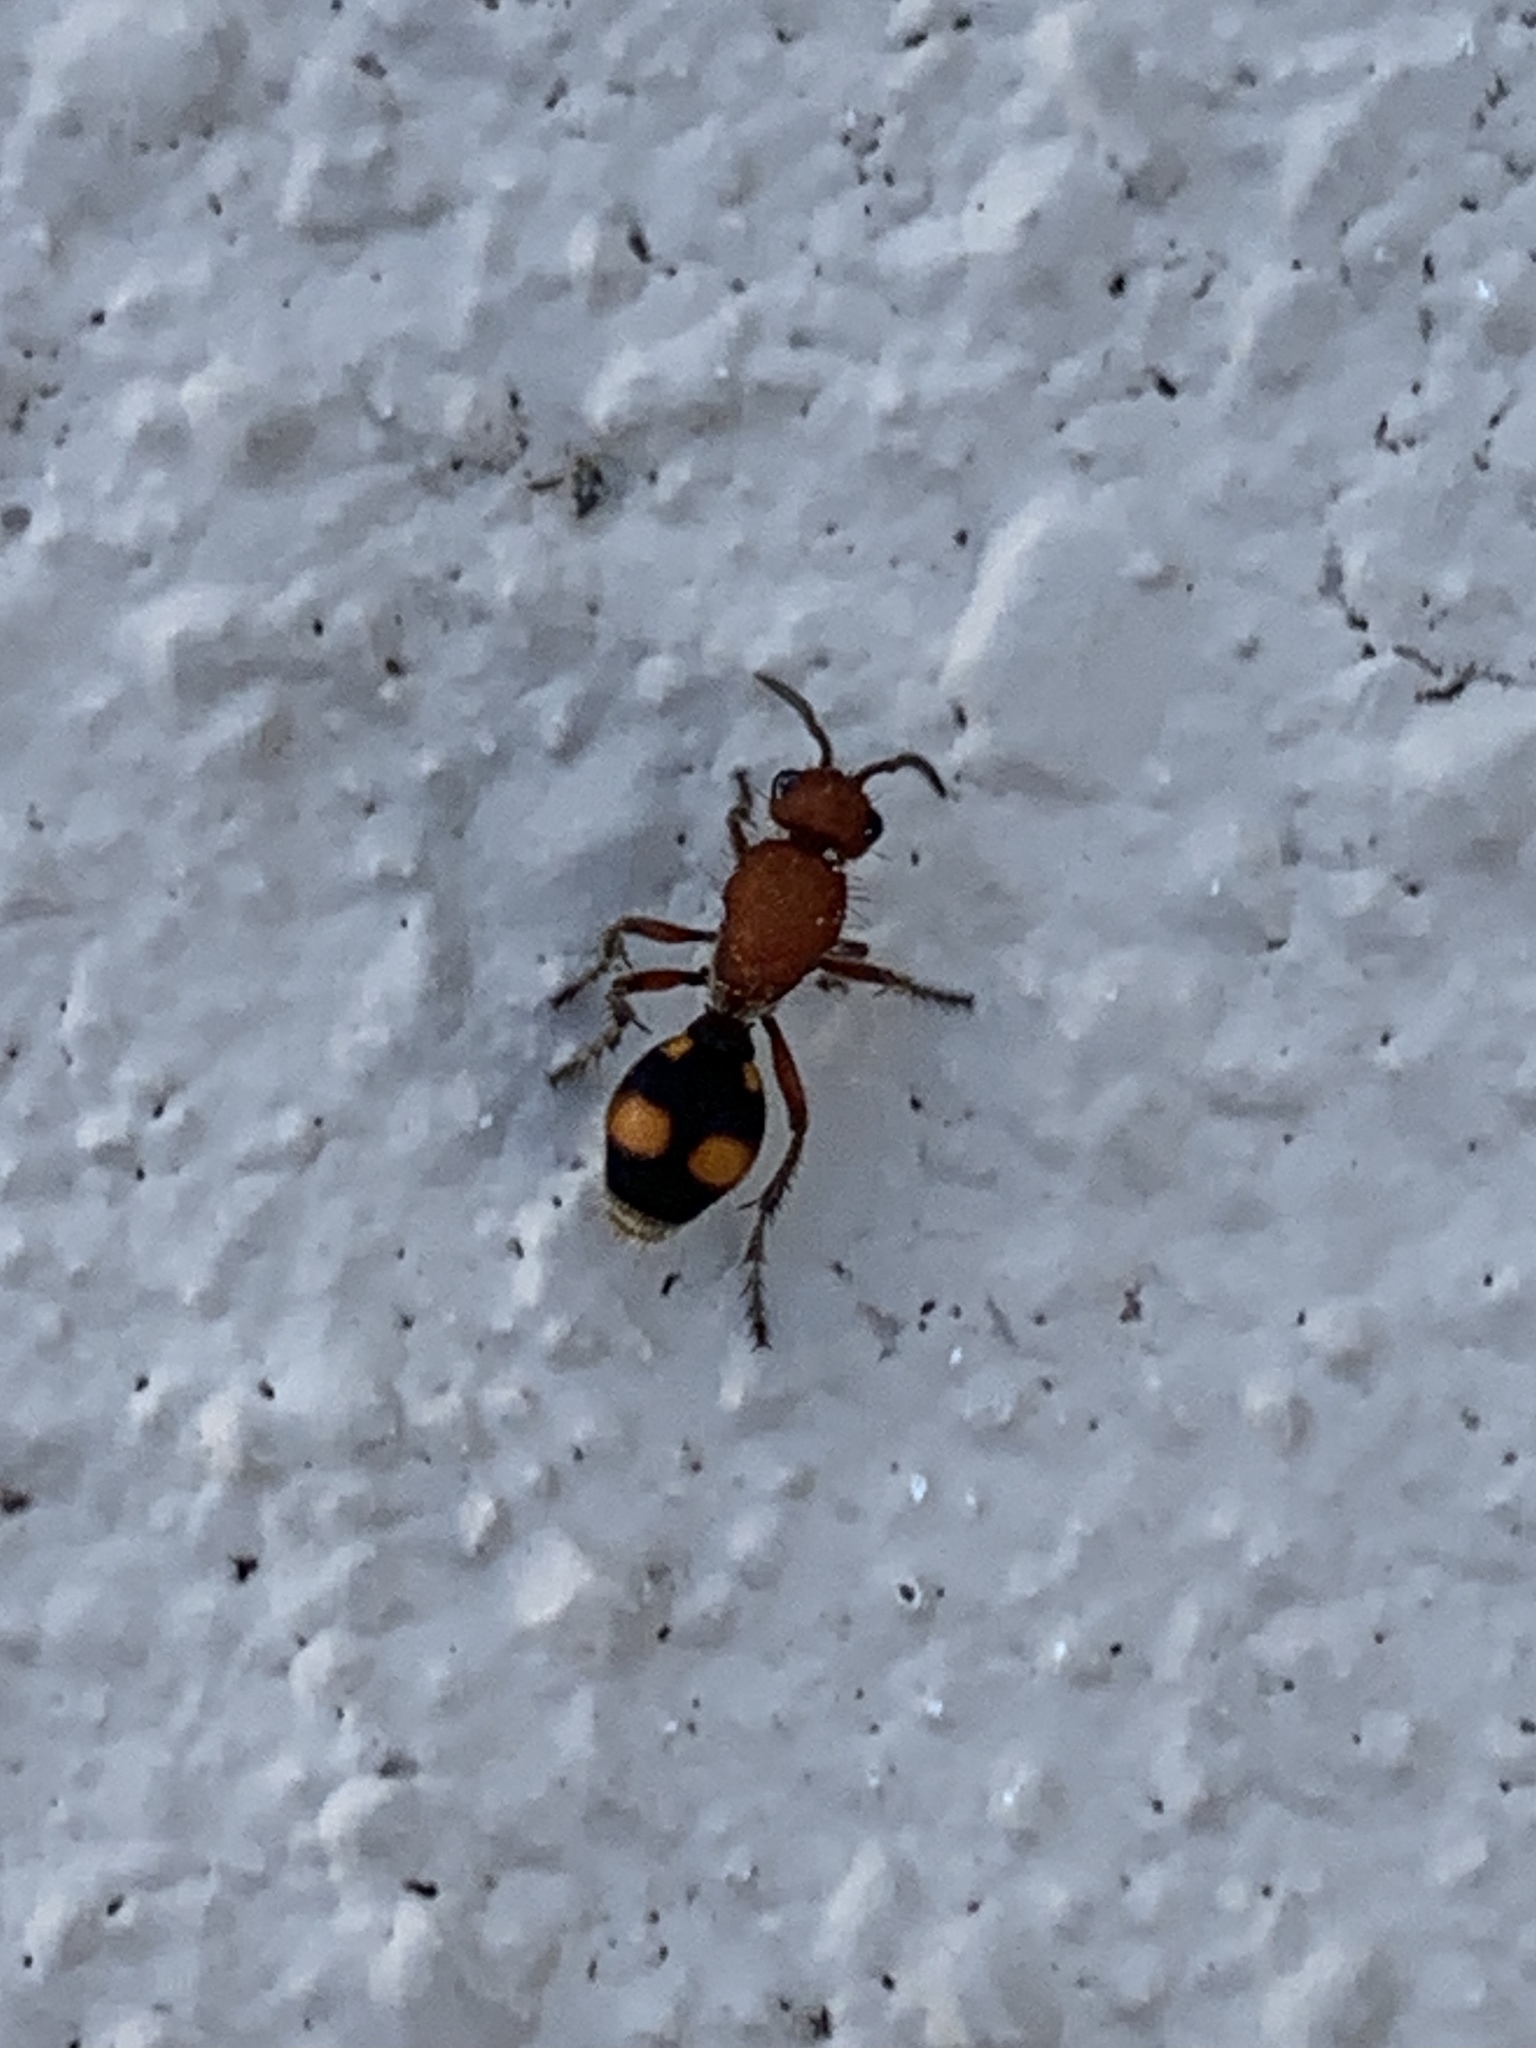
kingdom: Animalia
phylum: Arthropoda
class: Insecta
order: Hymenoptera
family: Mutillidae
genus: Dasymutilla
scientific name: Dasymutilla
